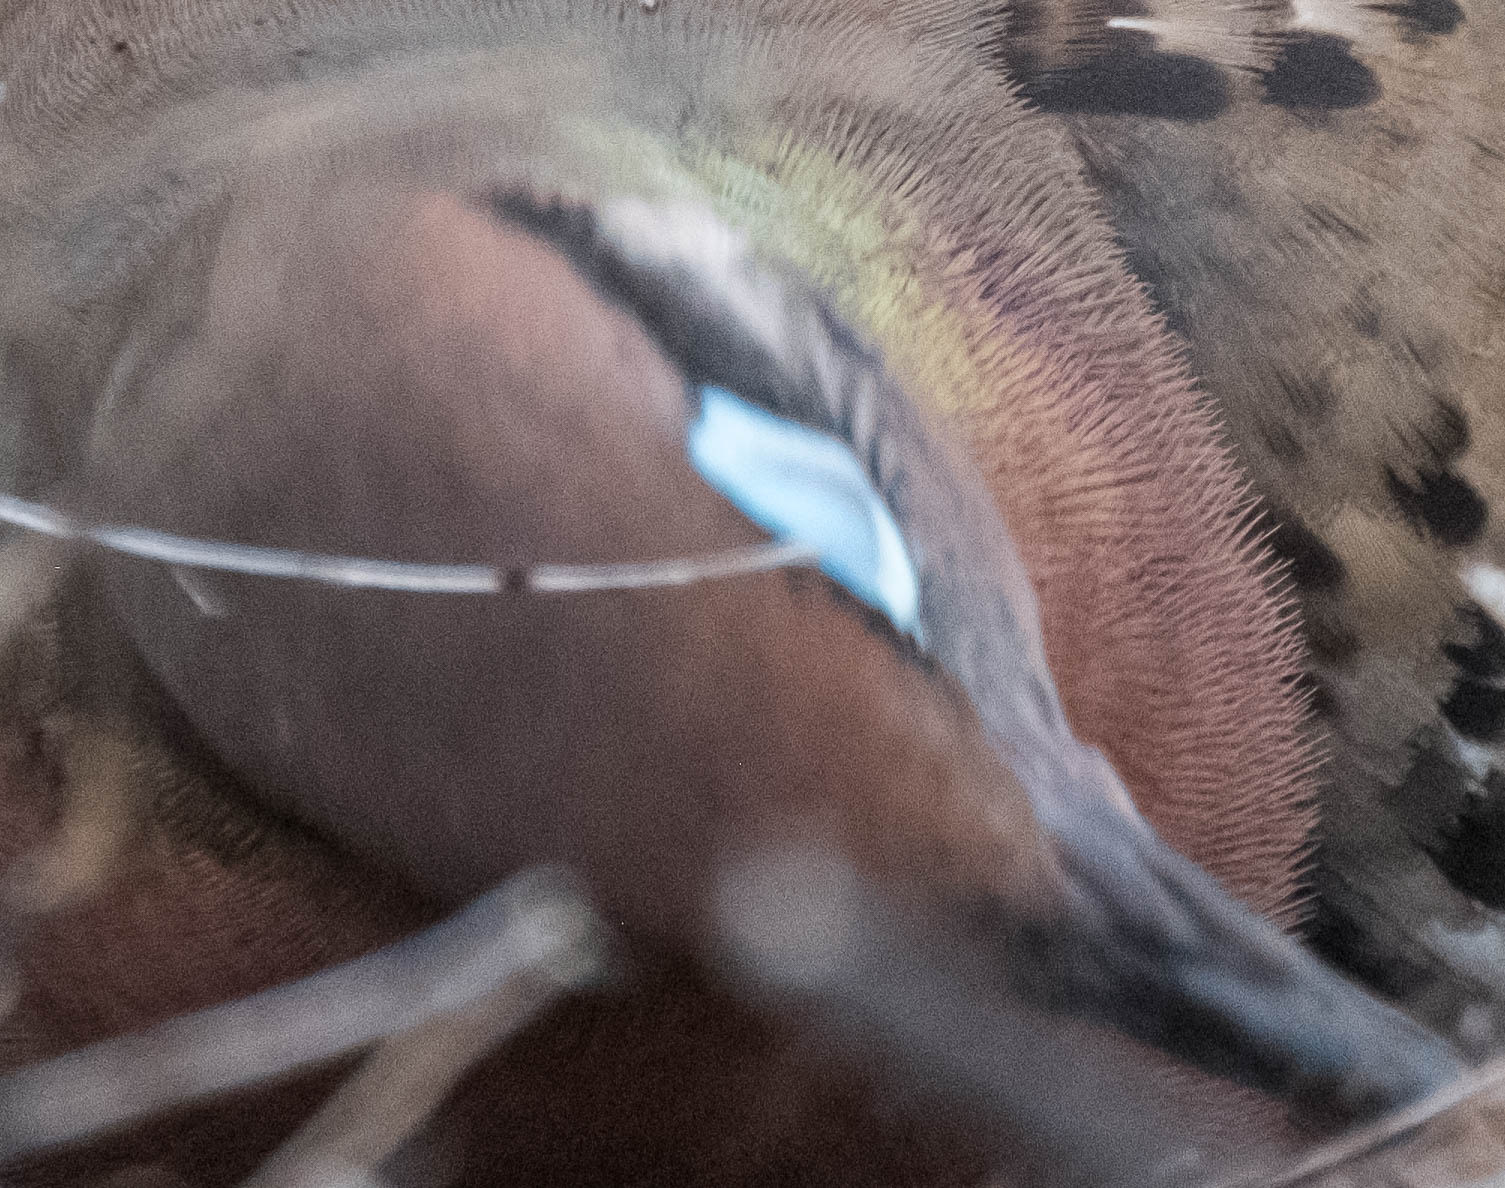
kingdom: Animalia
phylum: Chordata
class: Aves
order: Columbiformes
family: Columbidae
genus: Zenaida
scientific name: Zenaida galapagoensis
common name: Galapagos dove
